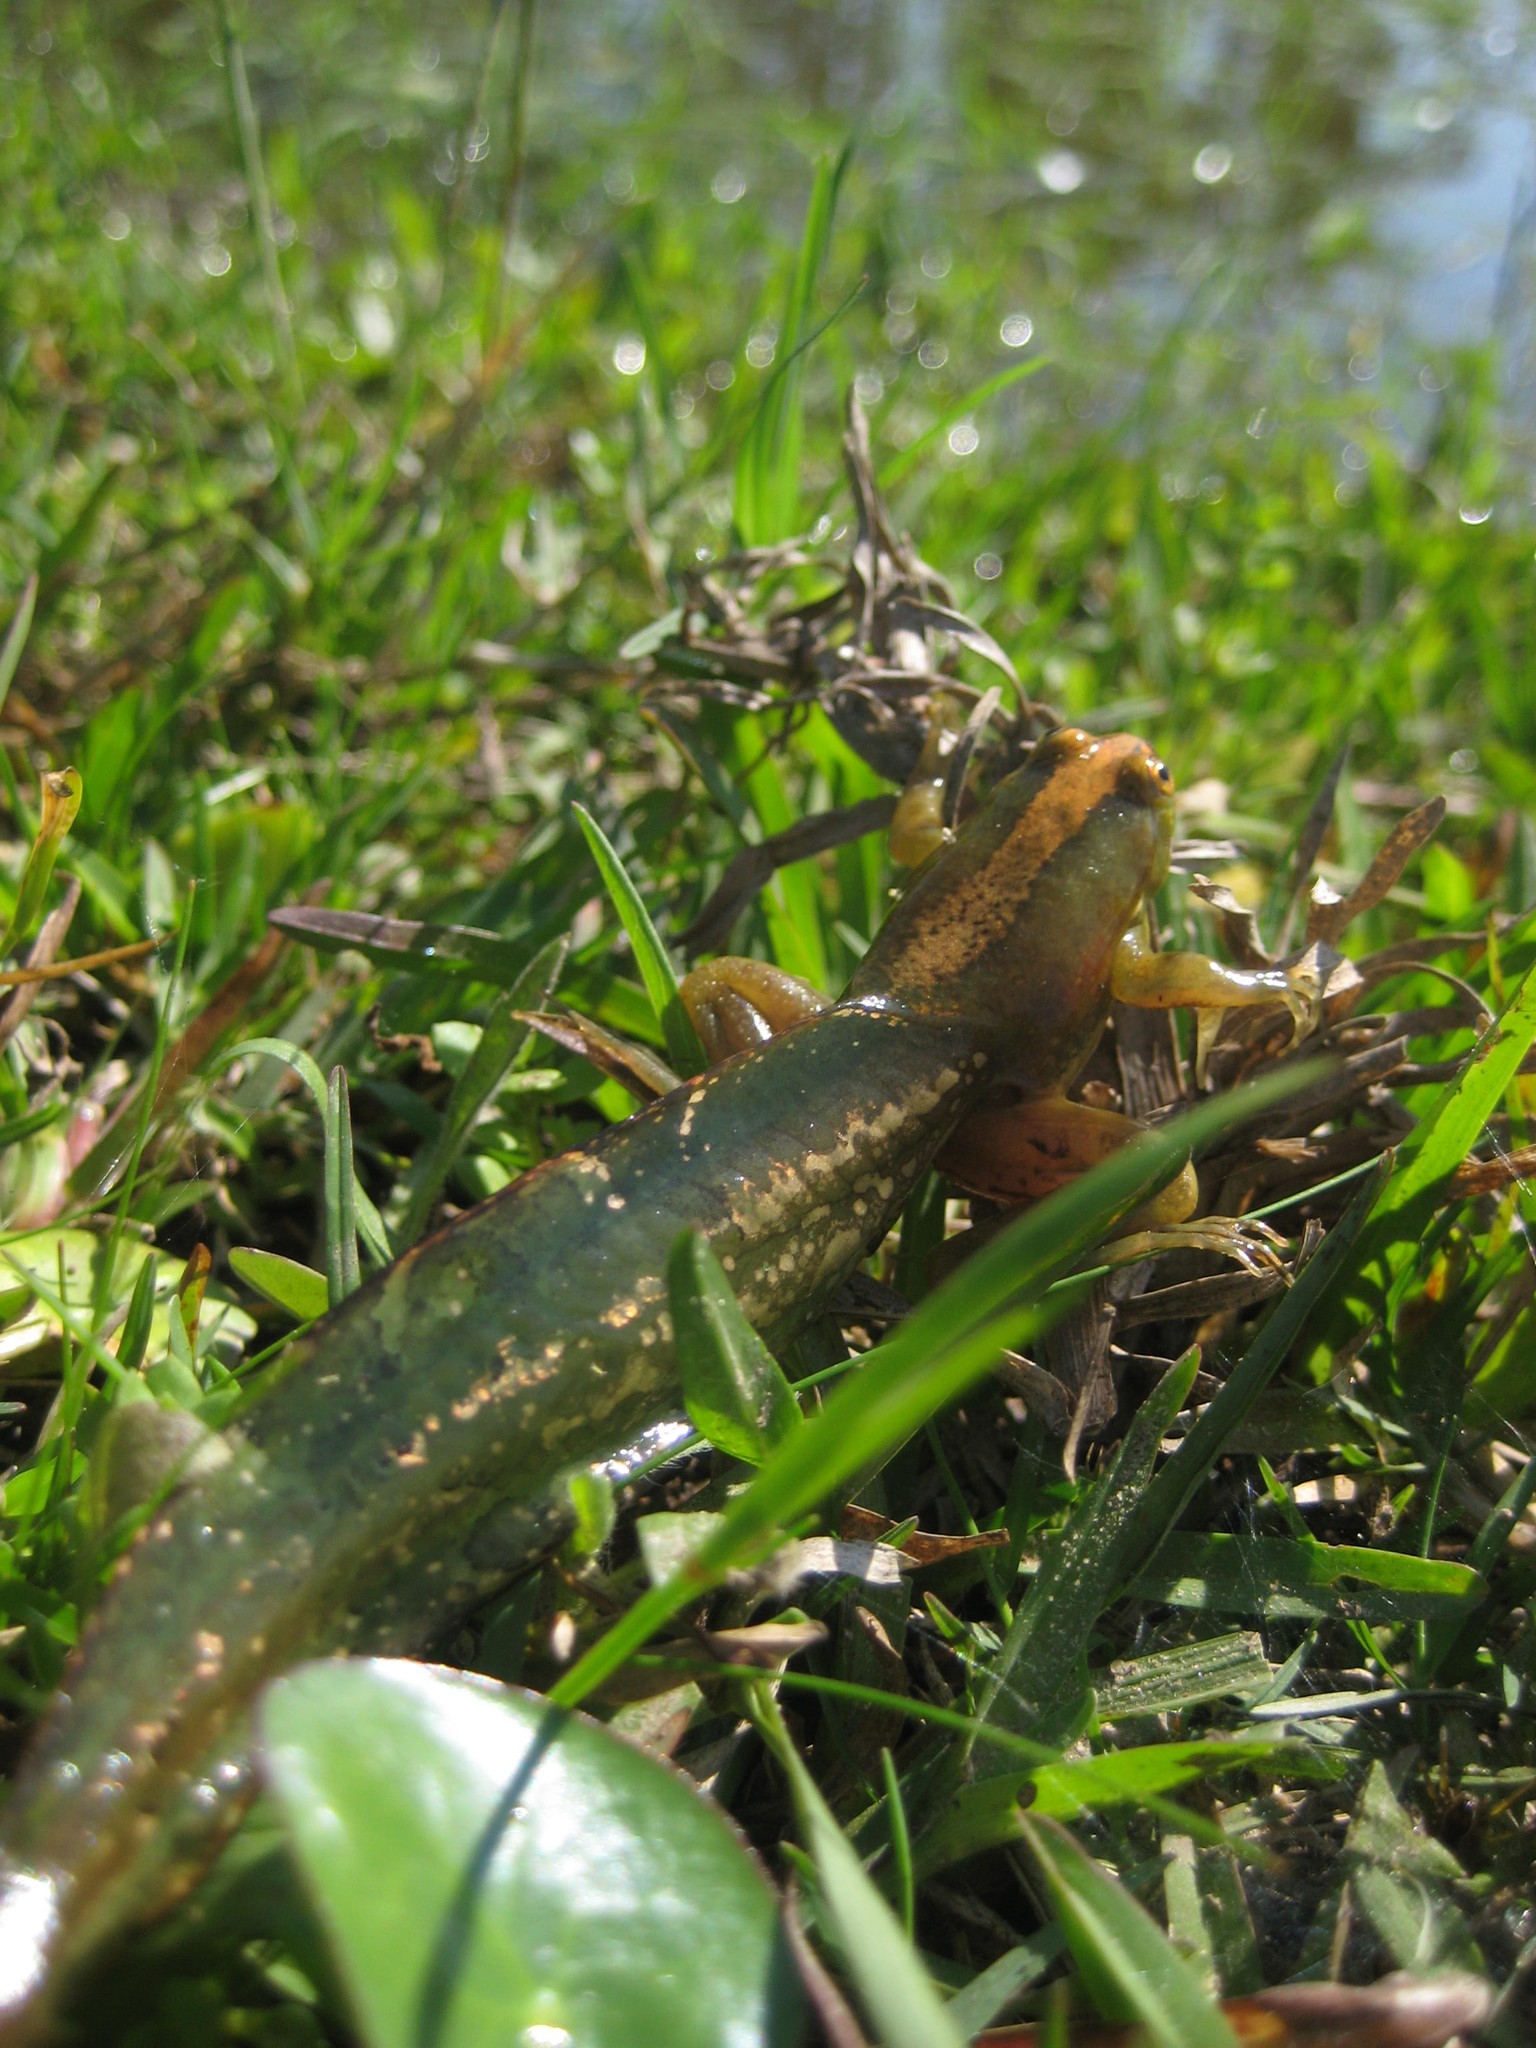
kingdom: Animalia
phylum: Chordata
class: Amphibia
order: Anura
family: Hylidae
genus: Pseudis
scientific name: Pseudis minuta
